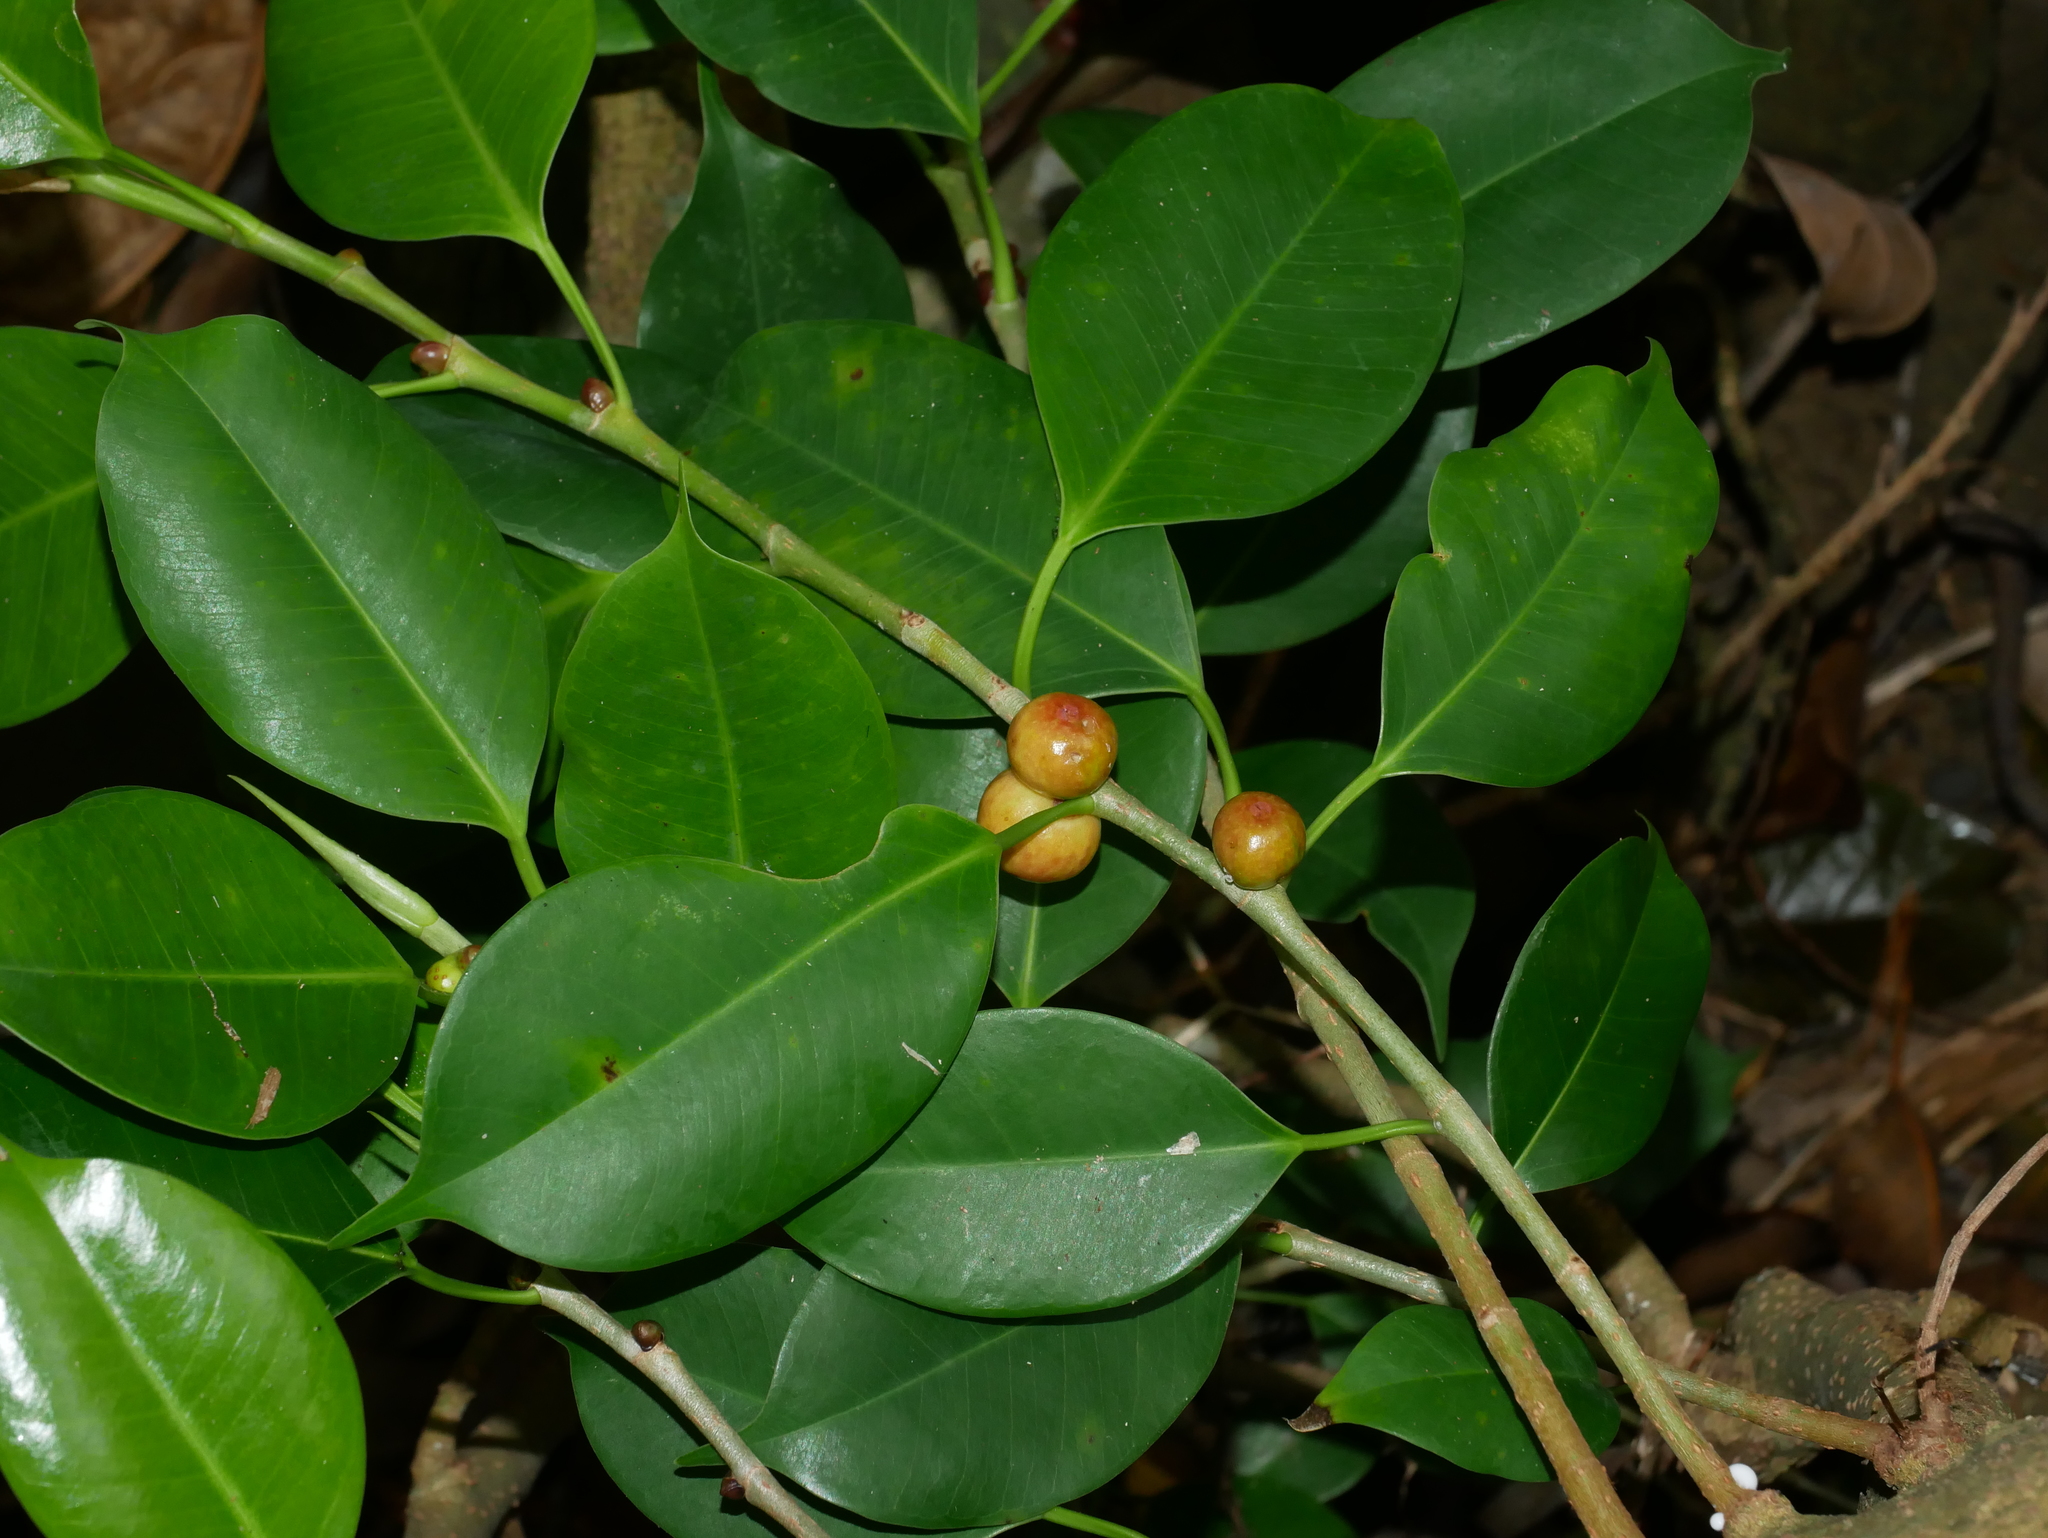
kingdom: Plantae
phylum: Tracheophyta
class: Magnoliopsida
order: Rosales
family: Moraceae
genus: Ficus
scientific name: Ficus benjamina
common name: Weeping fig
